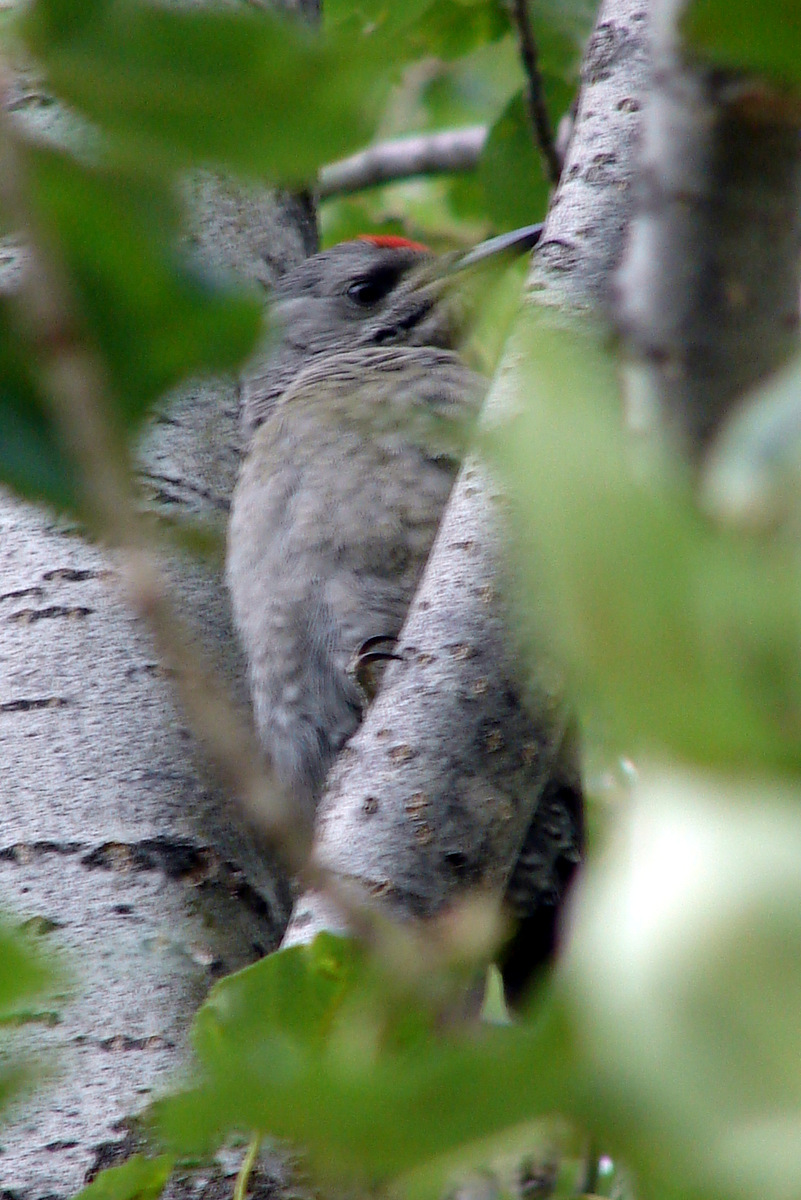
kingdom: Animalia
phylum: Chordata
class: Aves
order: Piciformes
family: Picidae
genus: Picus
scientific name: Picus canus
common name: Grey-headed woodpecker
